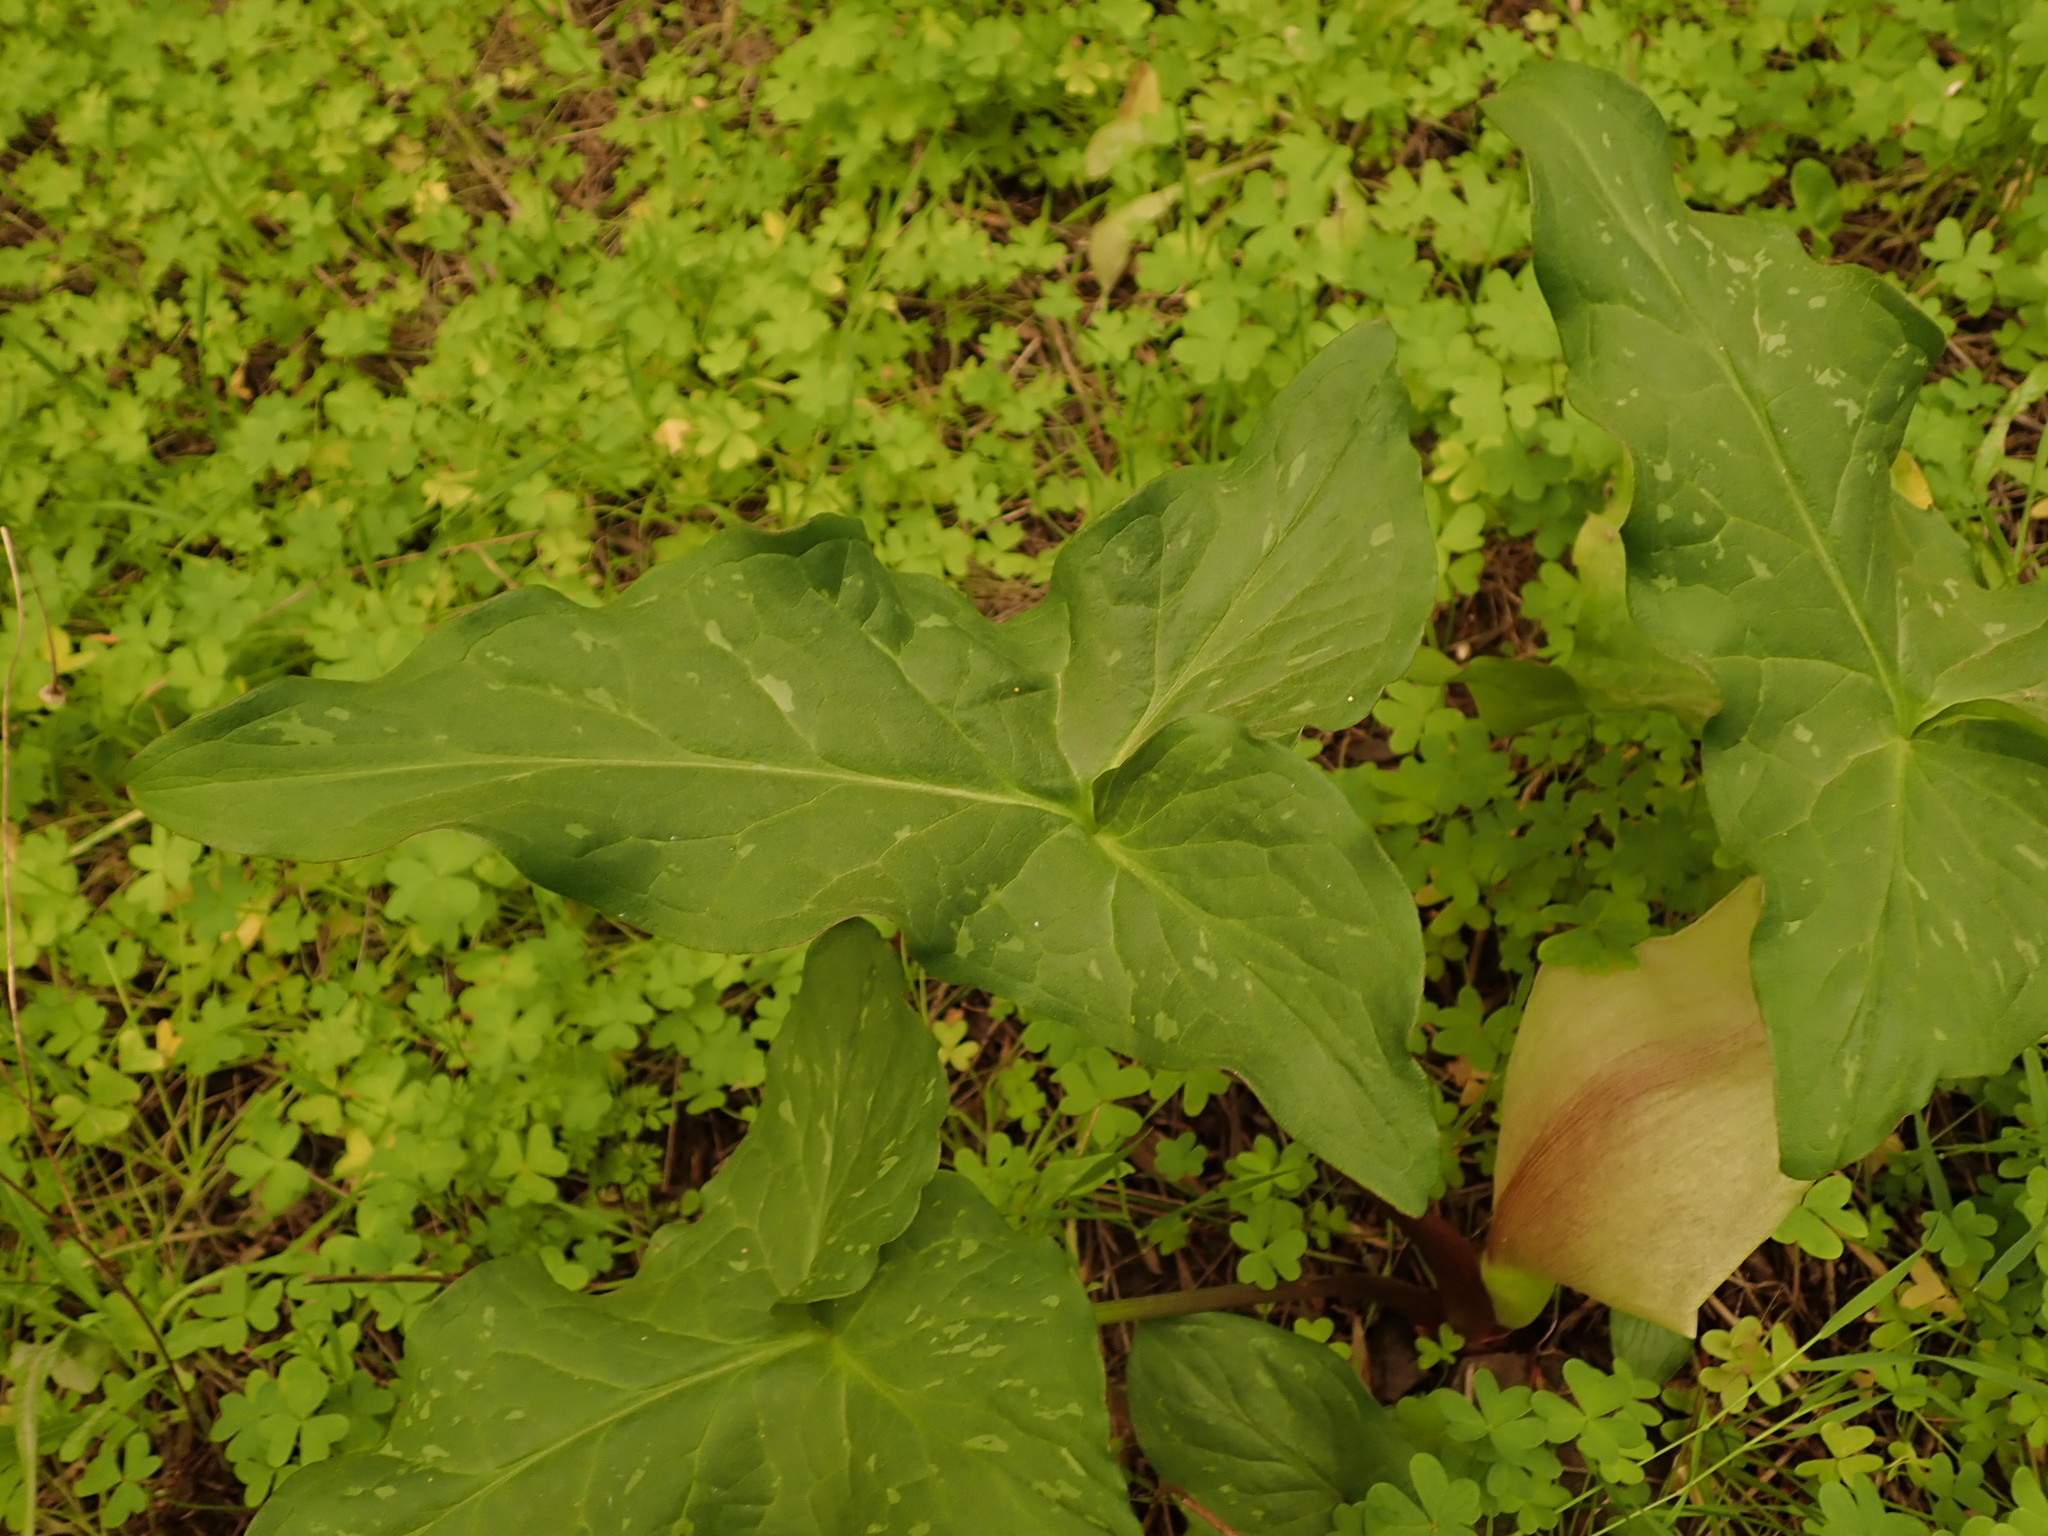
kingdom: Plantae
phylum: Tracheophyta
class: Liliopsida
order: Alismatales
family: Araceae
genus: Arum
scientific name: Arum italicum
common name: Italian lords-and-ladies
